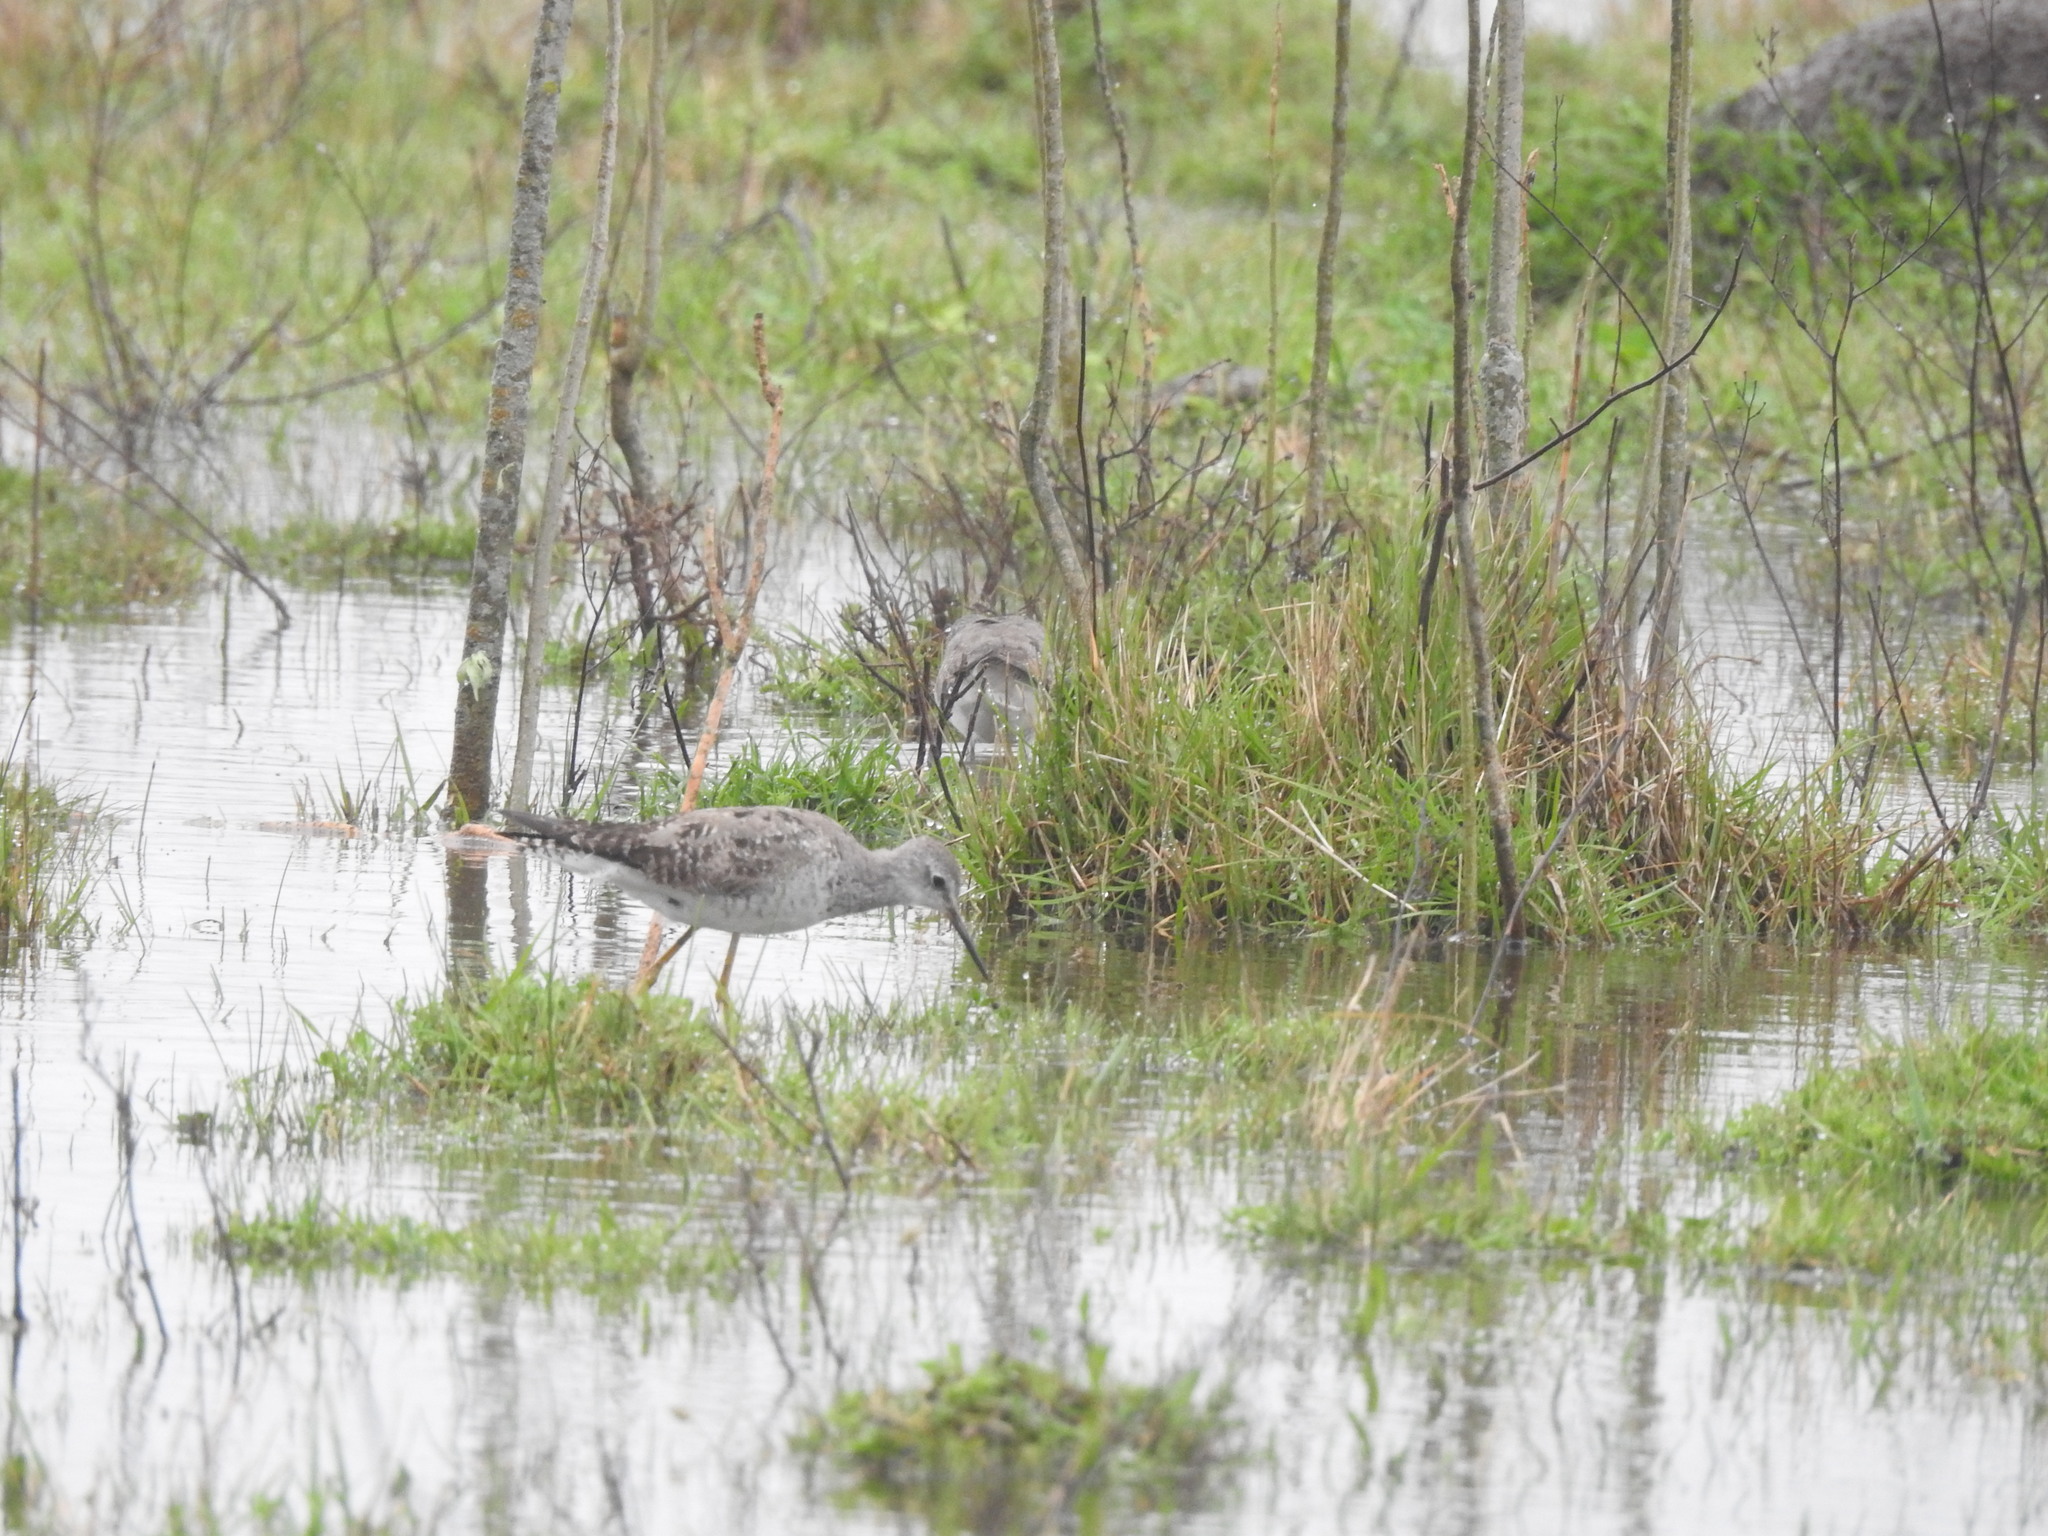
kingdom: Animalia
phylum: Chordata
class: Aves
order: Charadriiformes
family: Scolopacidae
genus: Tringa
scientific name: Tringa flavipes
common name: Lesser yellowlegs
